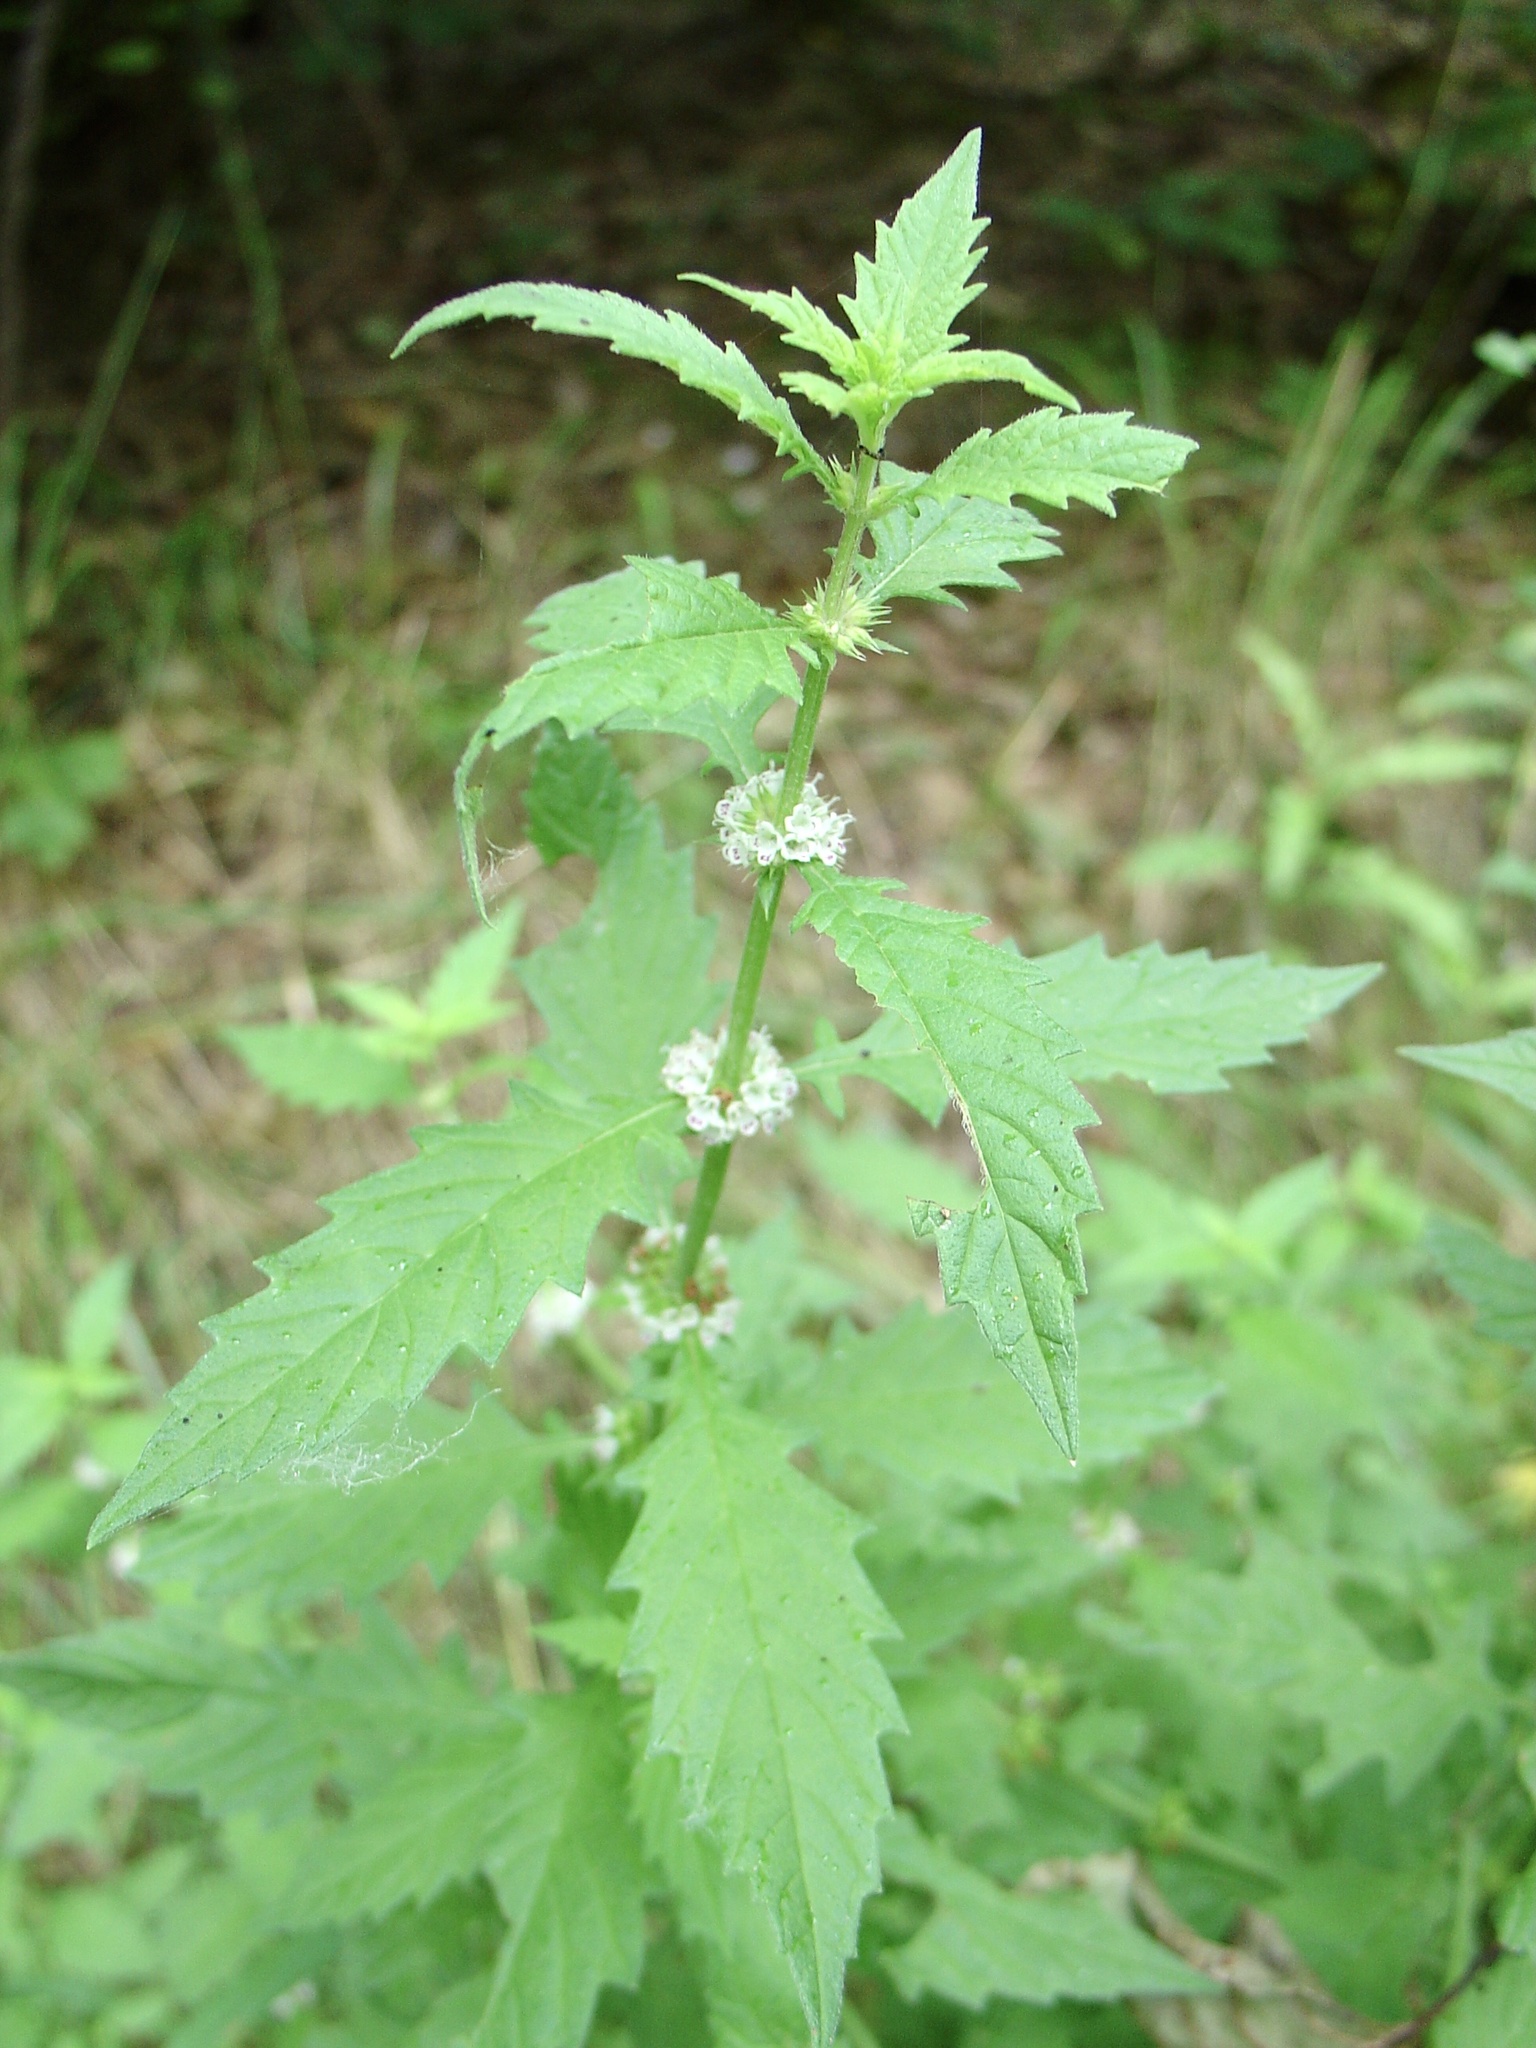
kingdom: Plantae
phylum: Tracheophyta
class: Magnoliopsida
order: Lamiales
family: Lamiaceae
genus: Lycopus
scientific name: Lycopus europaeus
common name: European bugleweed
